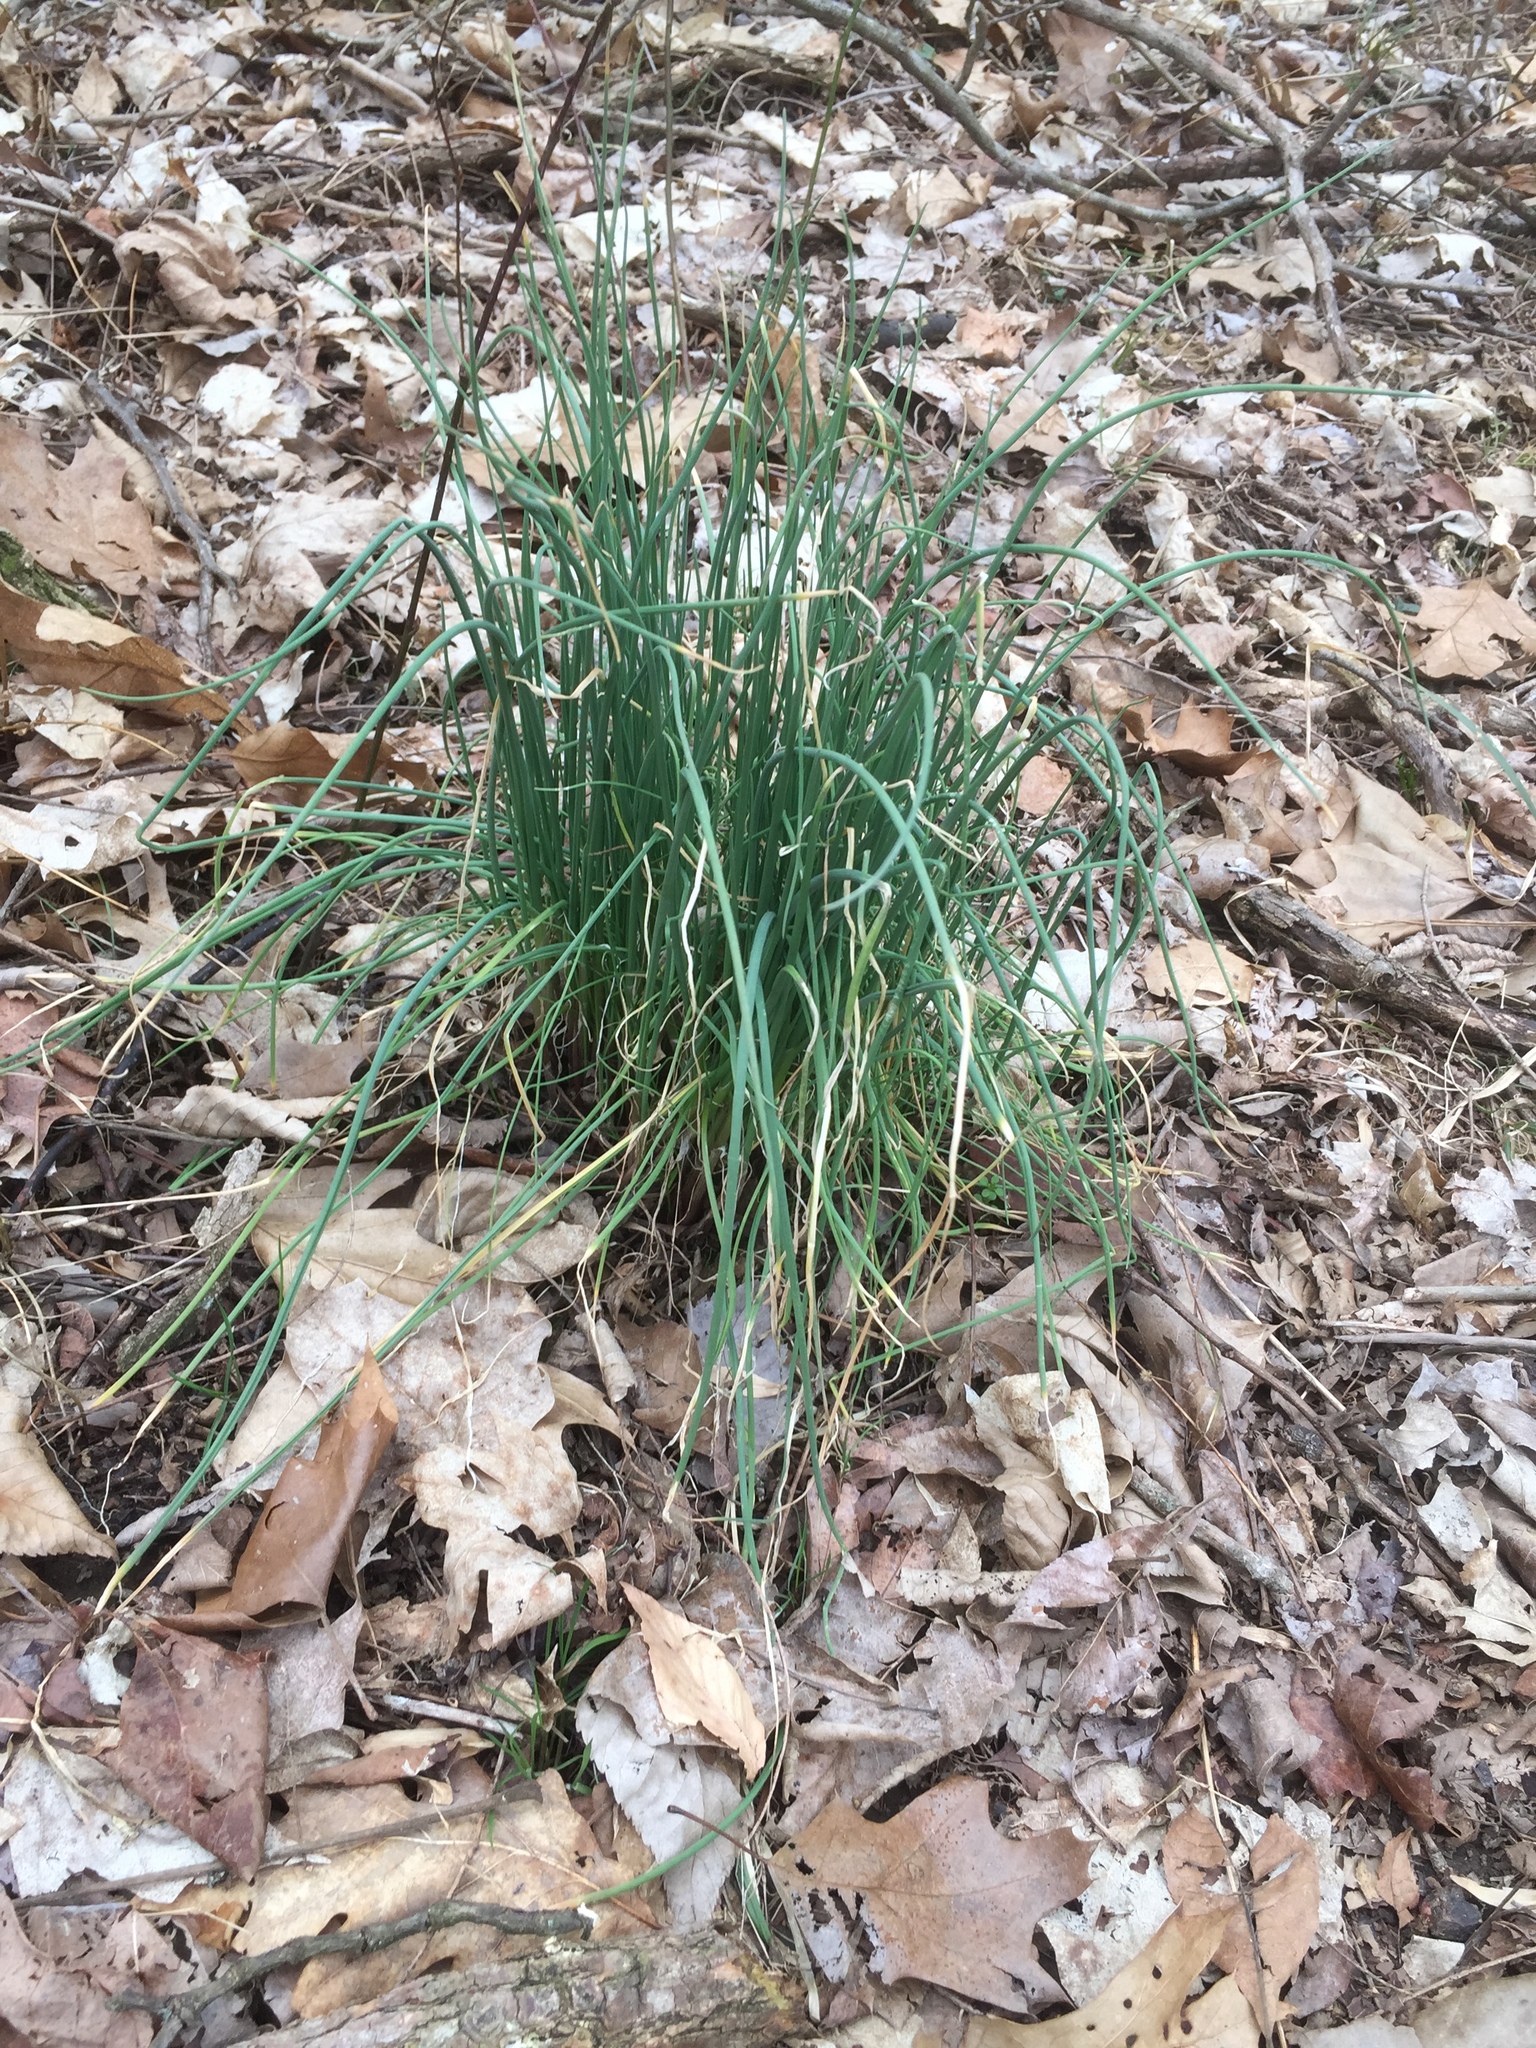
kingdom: Plantae
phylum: Tracheophyta
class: Liliopsida
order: Asparagales
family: Amaryllidaceae
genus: Allium
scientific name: Allium vineale
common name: Crow garlic
